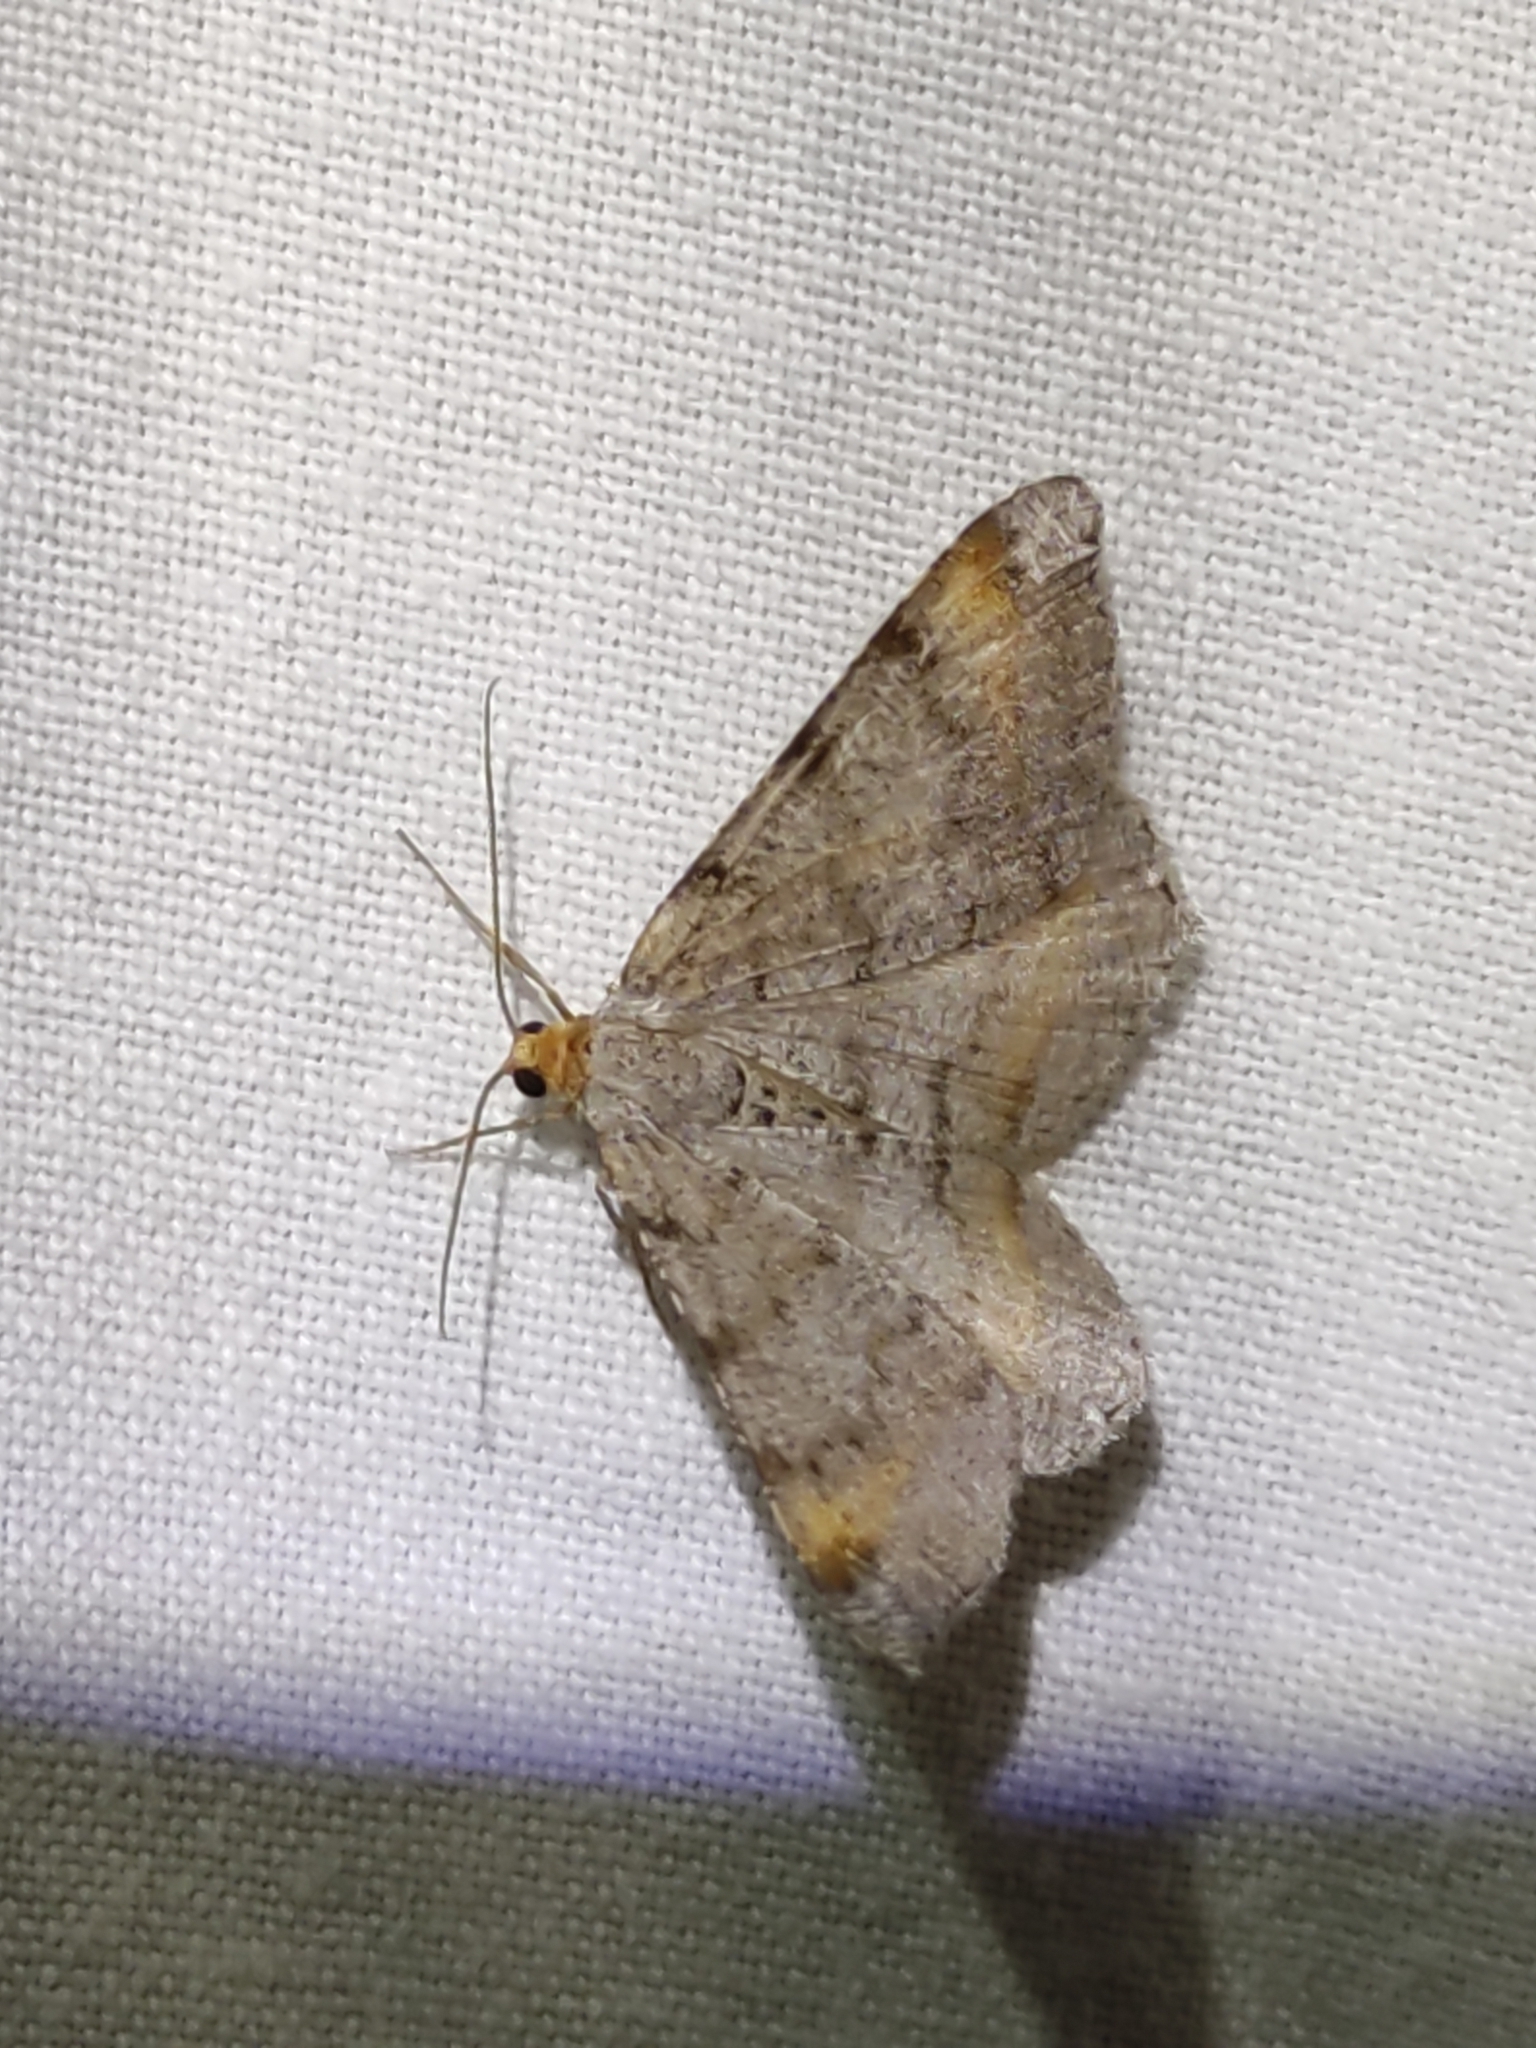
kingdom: Animalia
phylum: Arthropoda
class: Insecta
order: Lepidoptera
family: Geometridae
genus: Macaria
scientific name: Macaria liturata
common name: Tawny-barred angle
